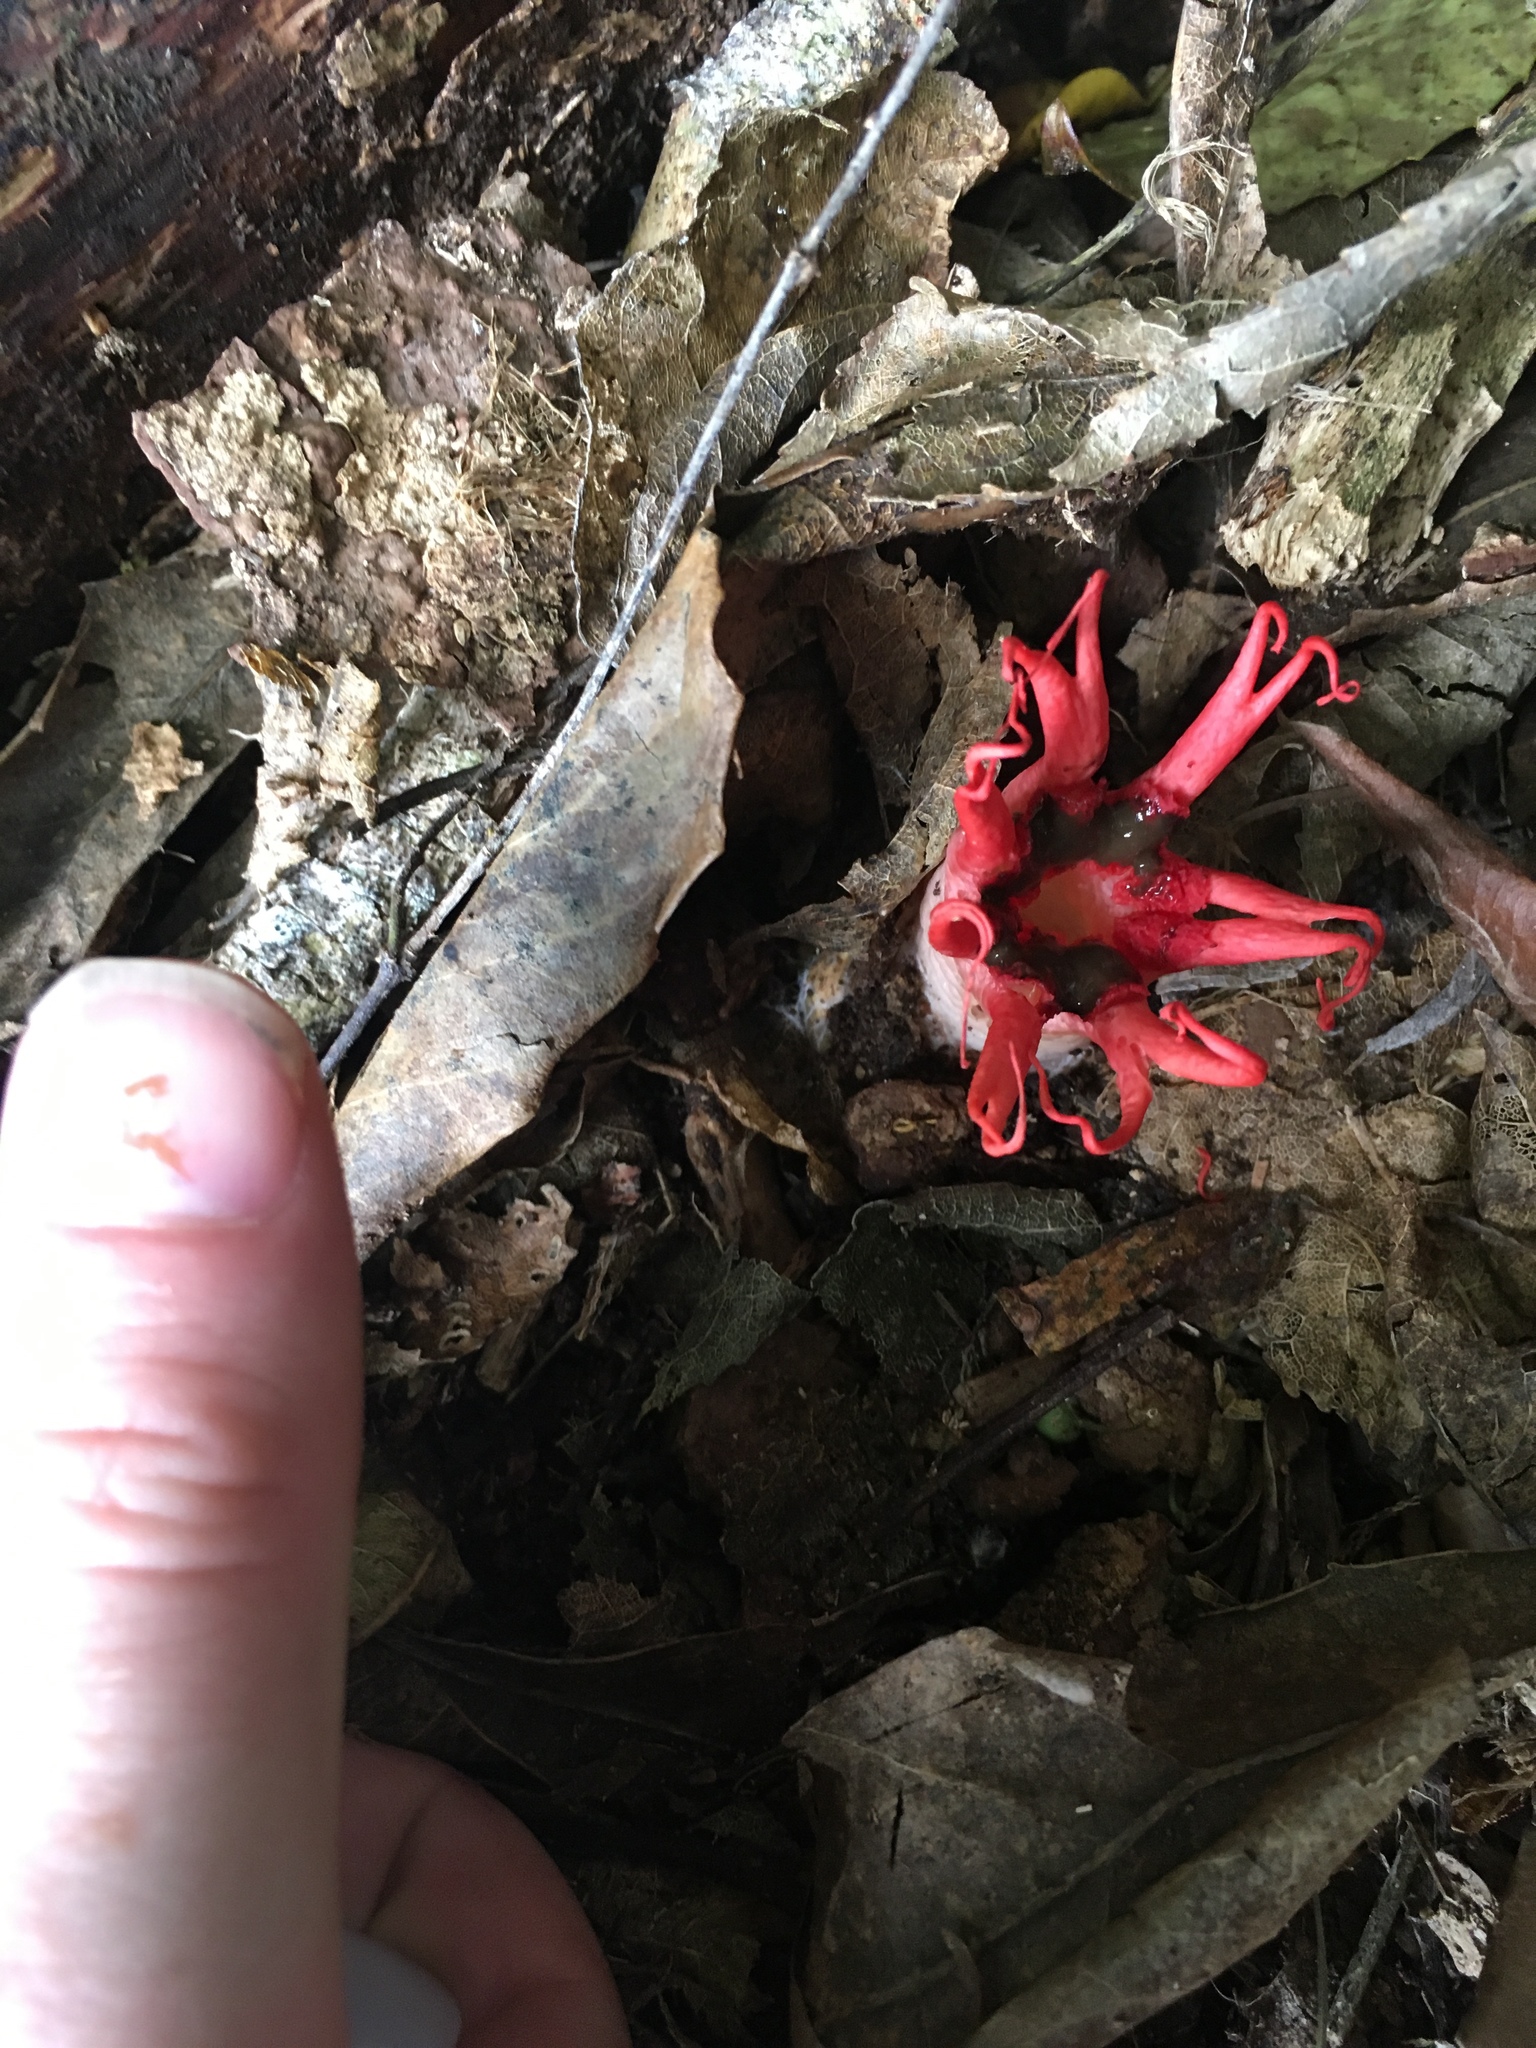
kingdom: Fungi
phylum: Basidiomycota
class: Agaricomycetes
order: Phallales
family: Phallaceae
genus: Aseroe
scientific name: Aseroe rubra
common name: Starfish fungus
